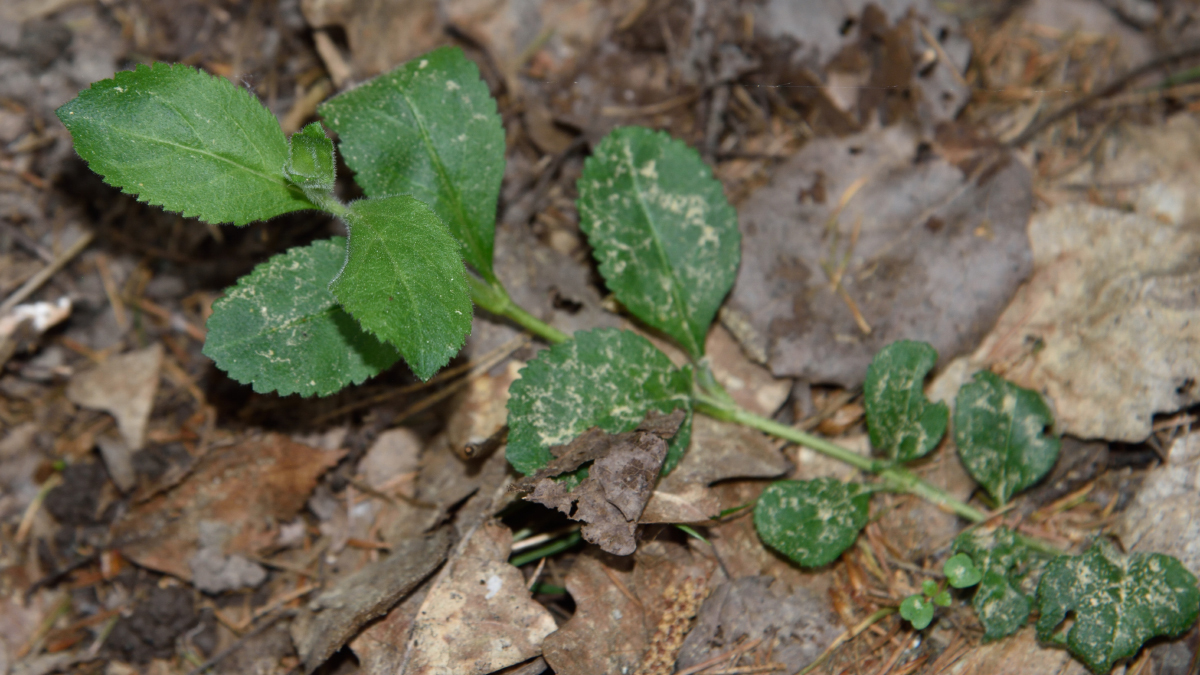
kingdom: Plantae
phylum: Tracheophyta
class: Magnoliopsida
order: Lamiales
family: Plantaginaceae
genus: Veronica
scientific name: Veronica officinalis
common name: Common speedwell
